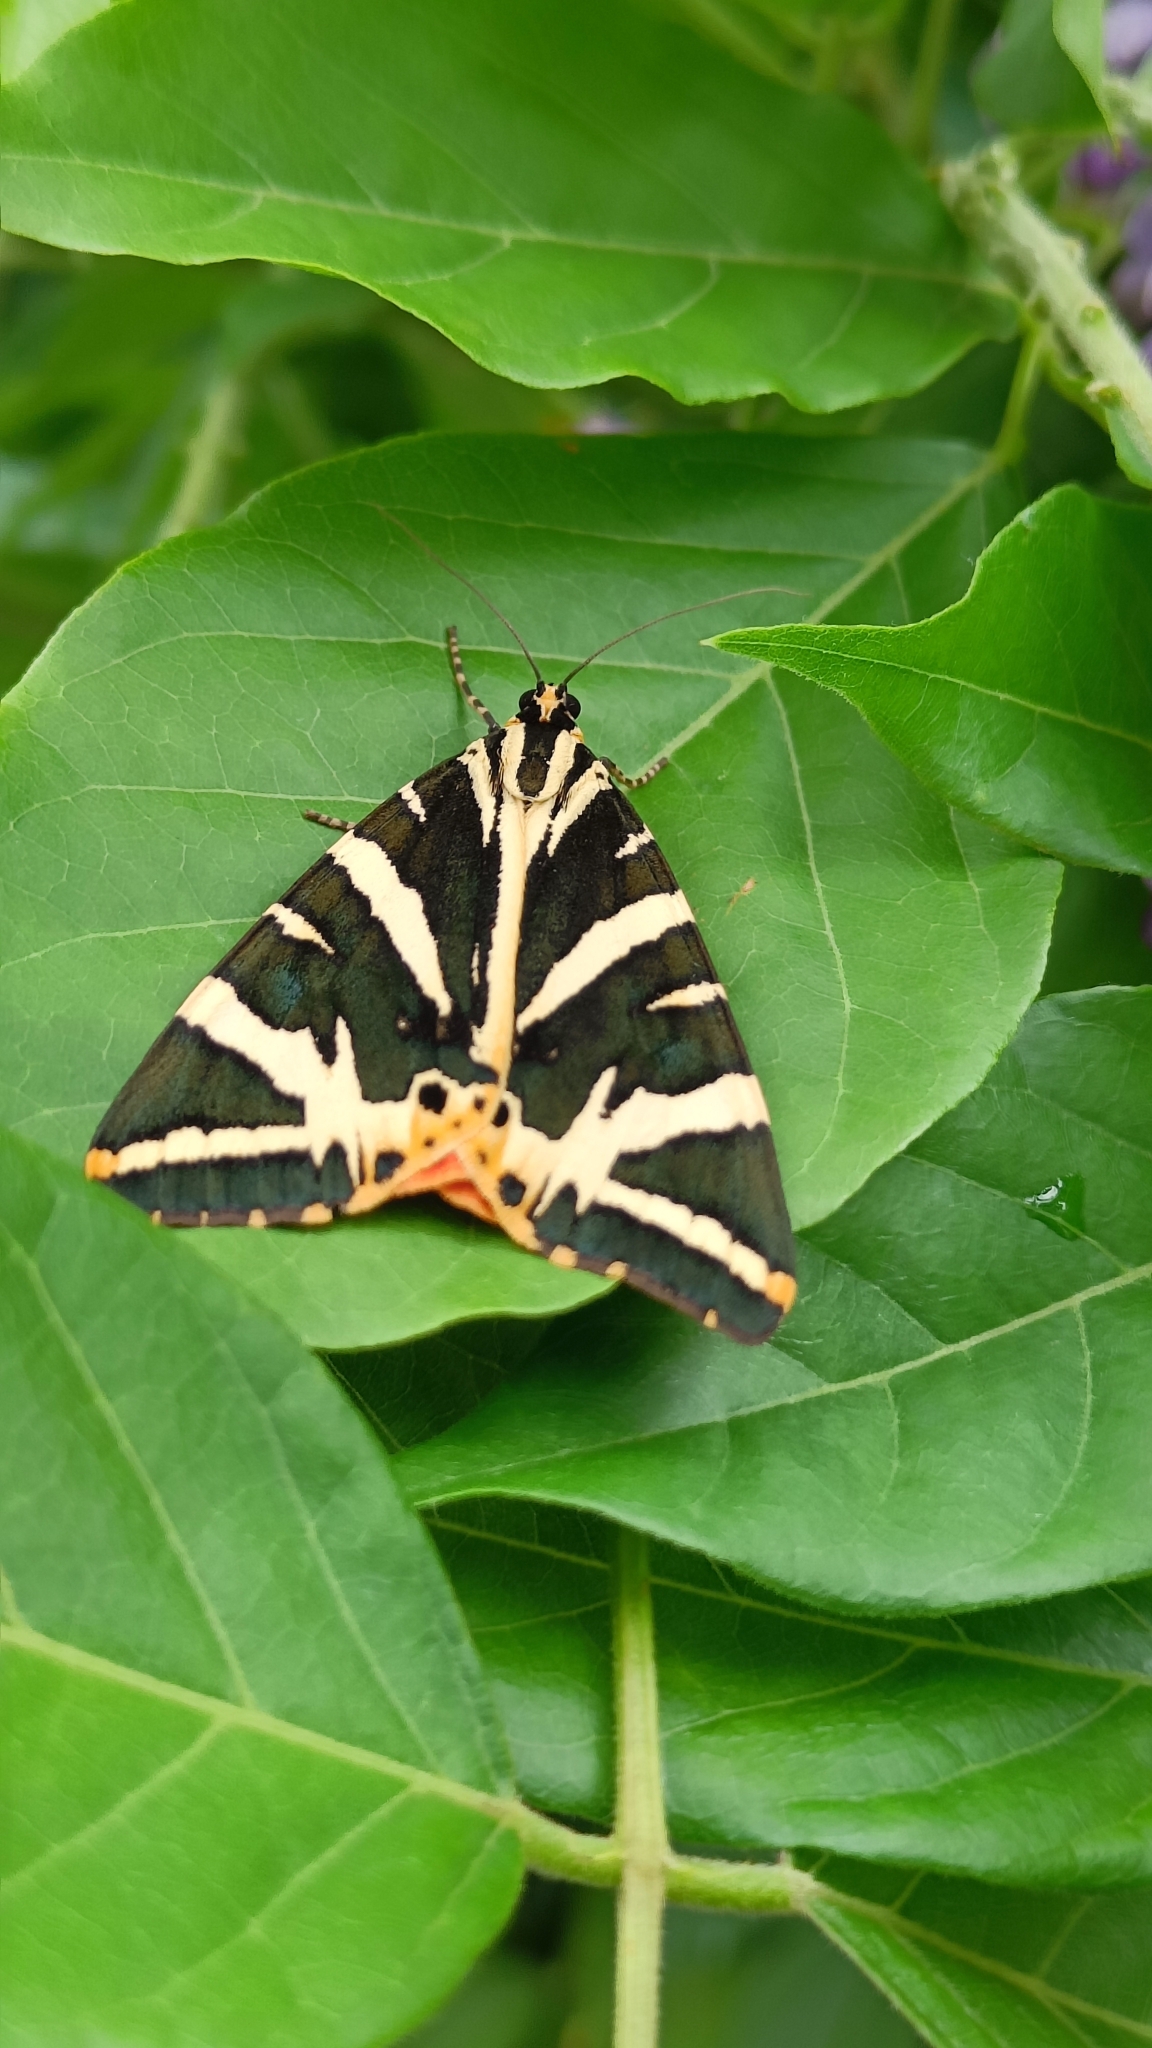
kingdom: Animalia
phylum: Arthropoda
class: Insecta
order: Lepidoptera
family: Erebidae
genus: Euplagia
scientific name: Euplagia quadripunctaria
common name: Jersey tiger
